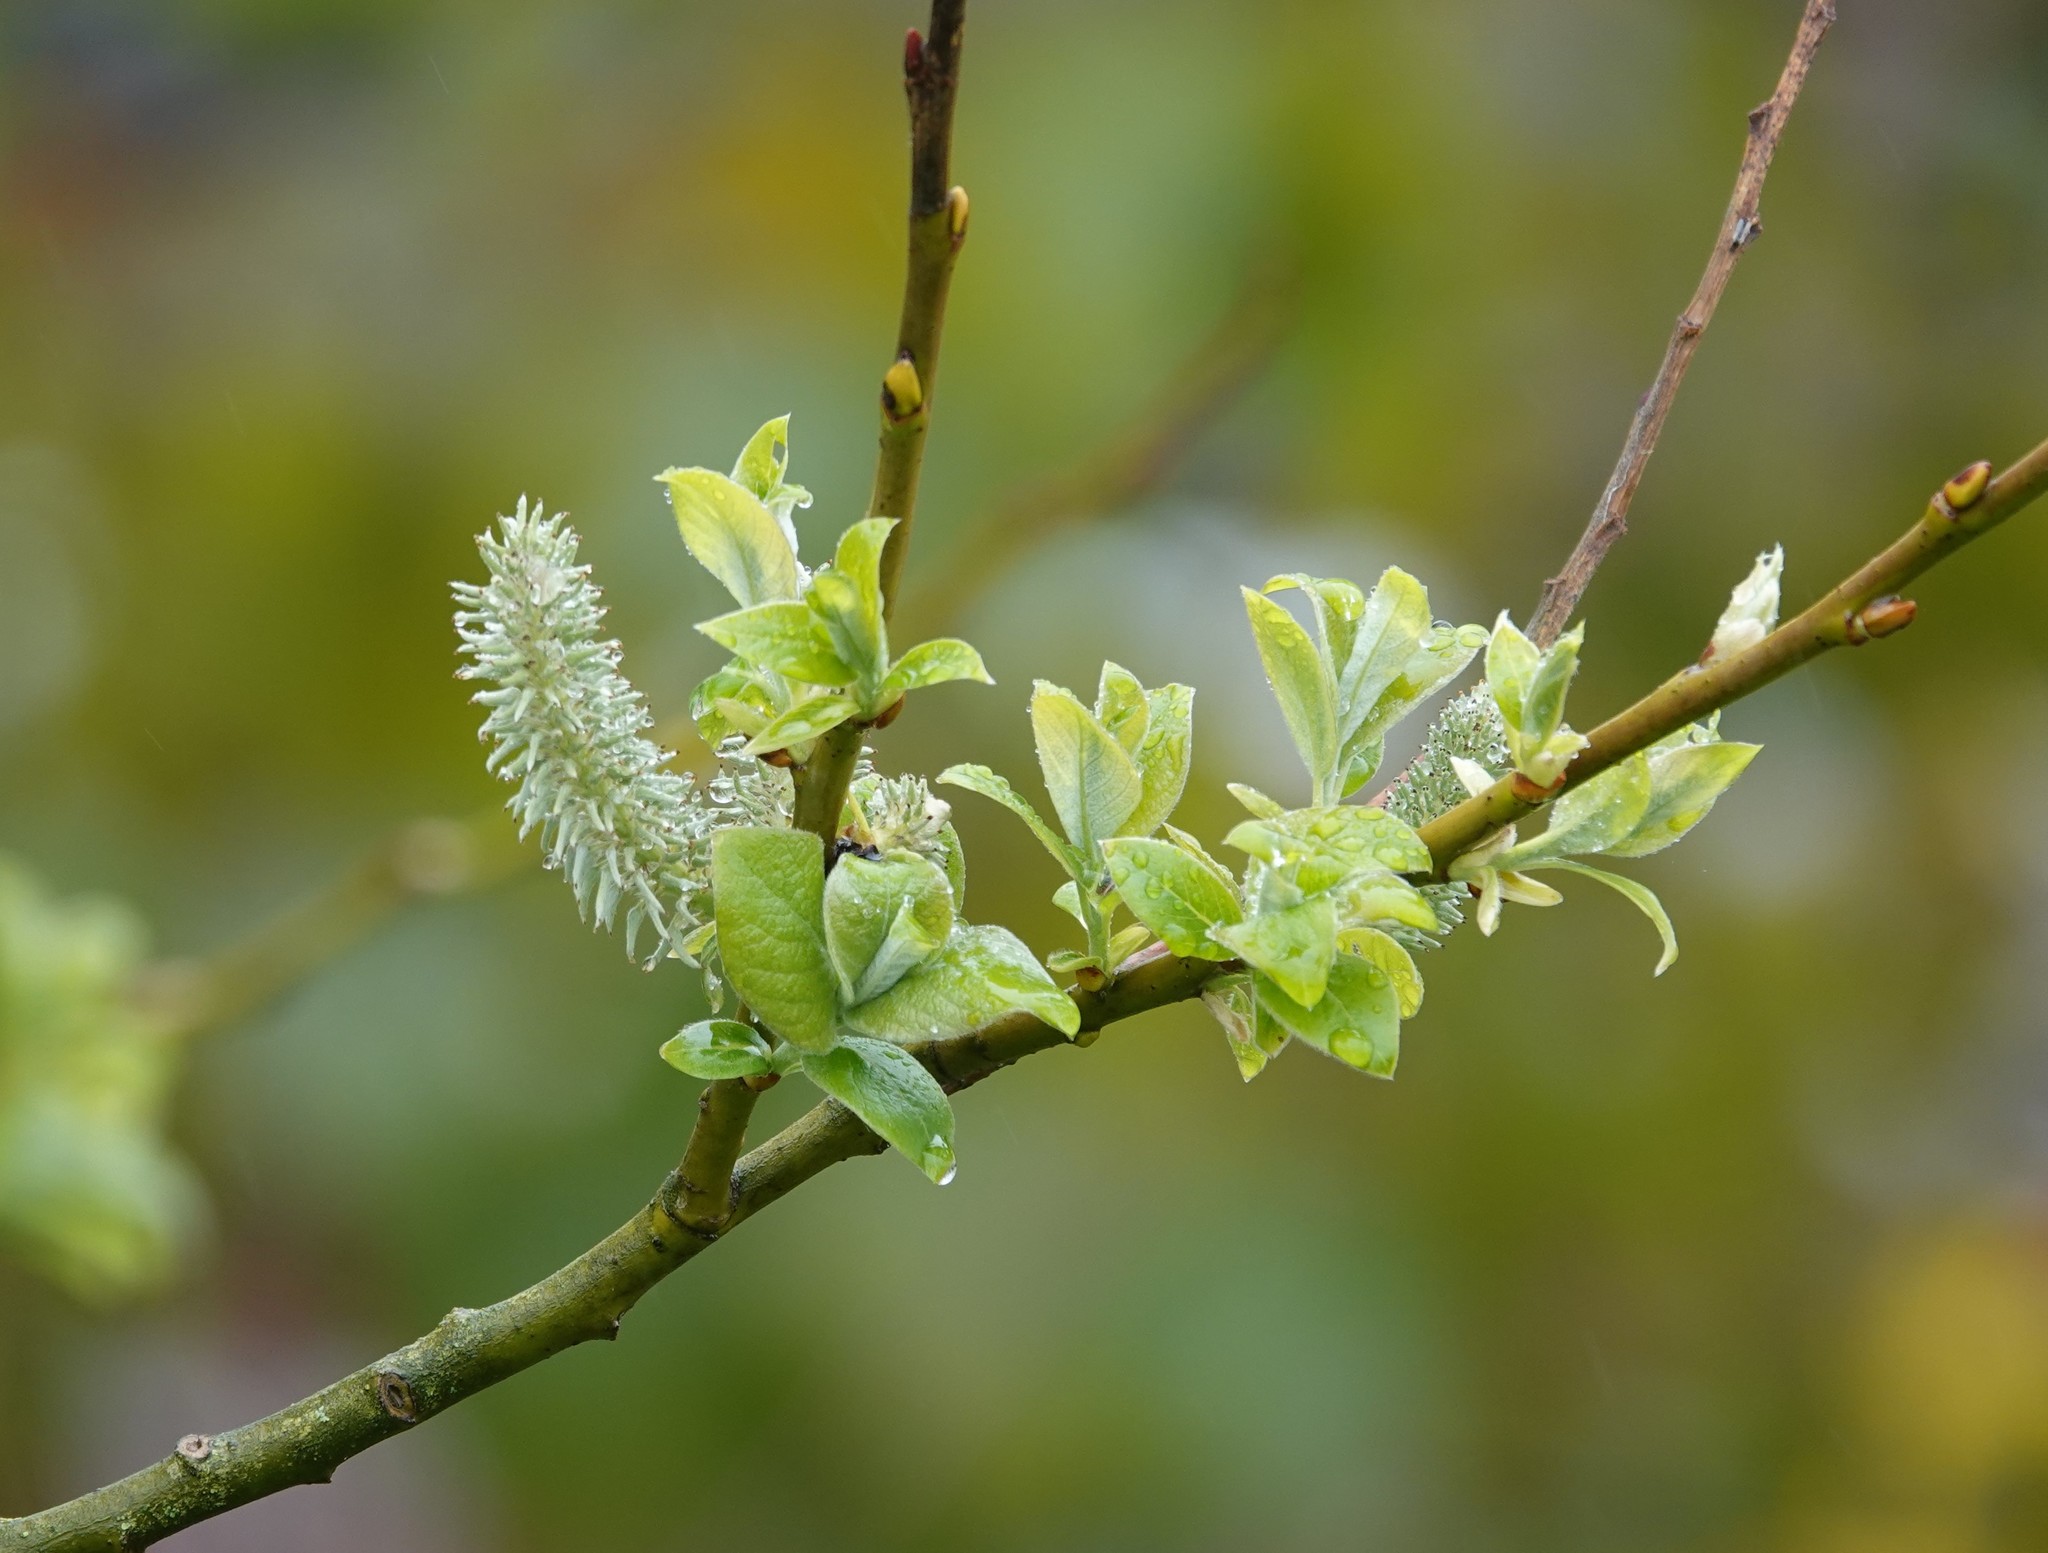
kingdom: Plantae
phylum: Tracheophyta
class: Magnoliopsida
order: Malpighiales
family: Salicaceae
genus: Salix
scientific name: Salix caprea
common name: Goat willow
